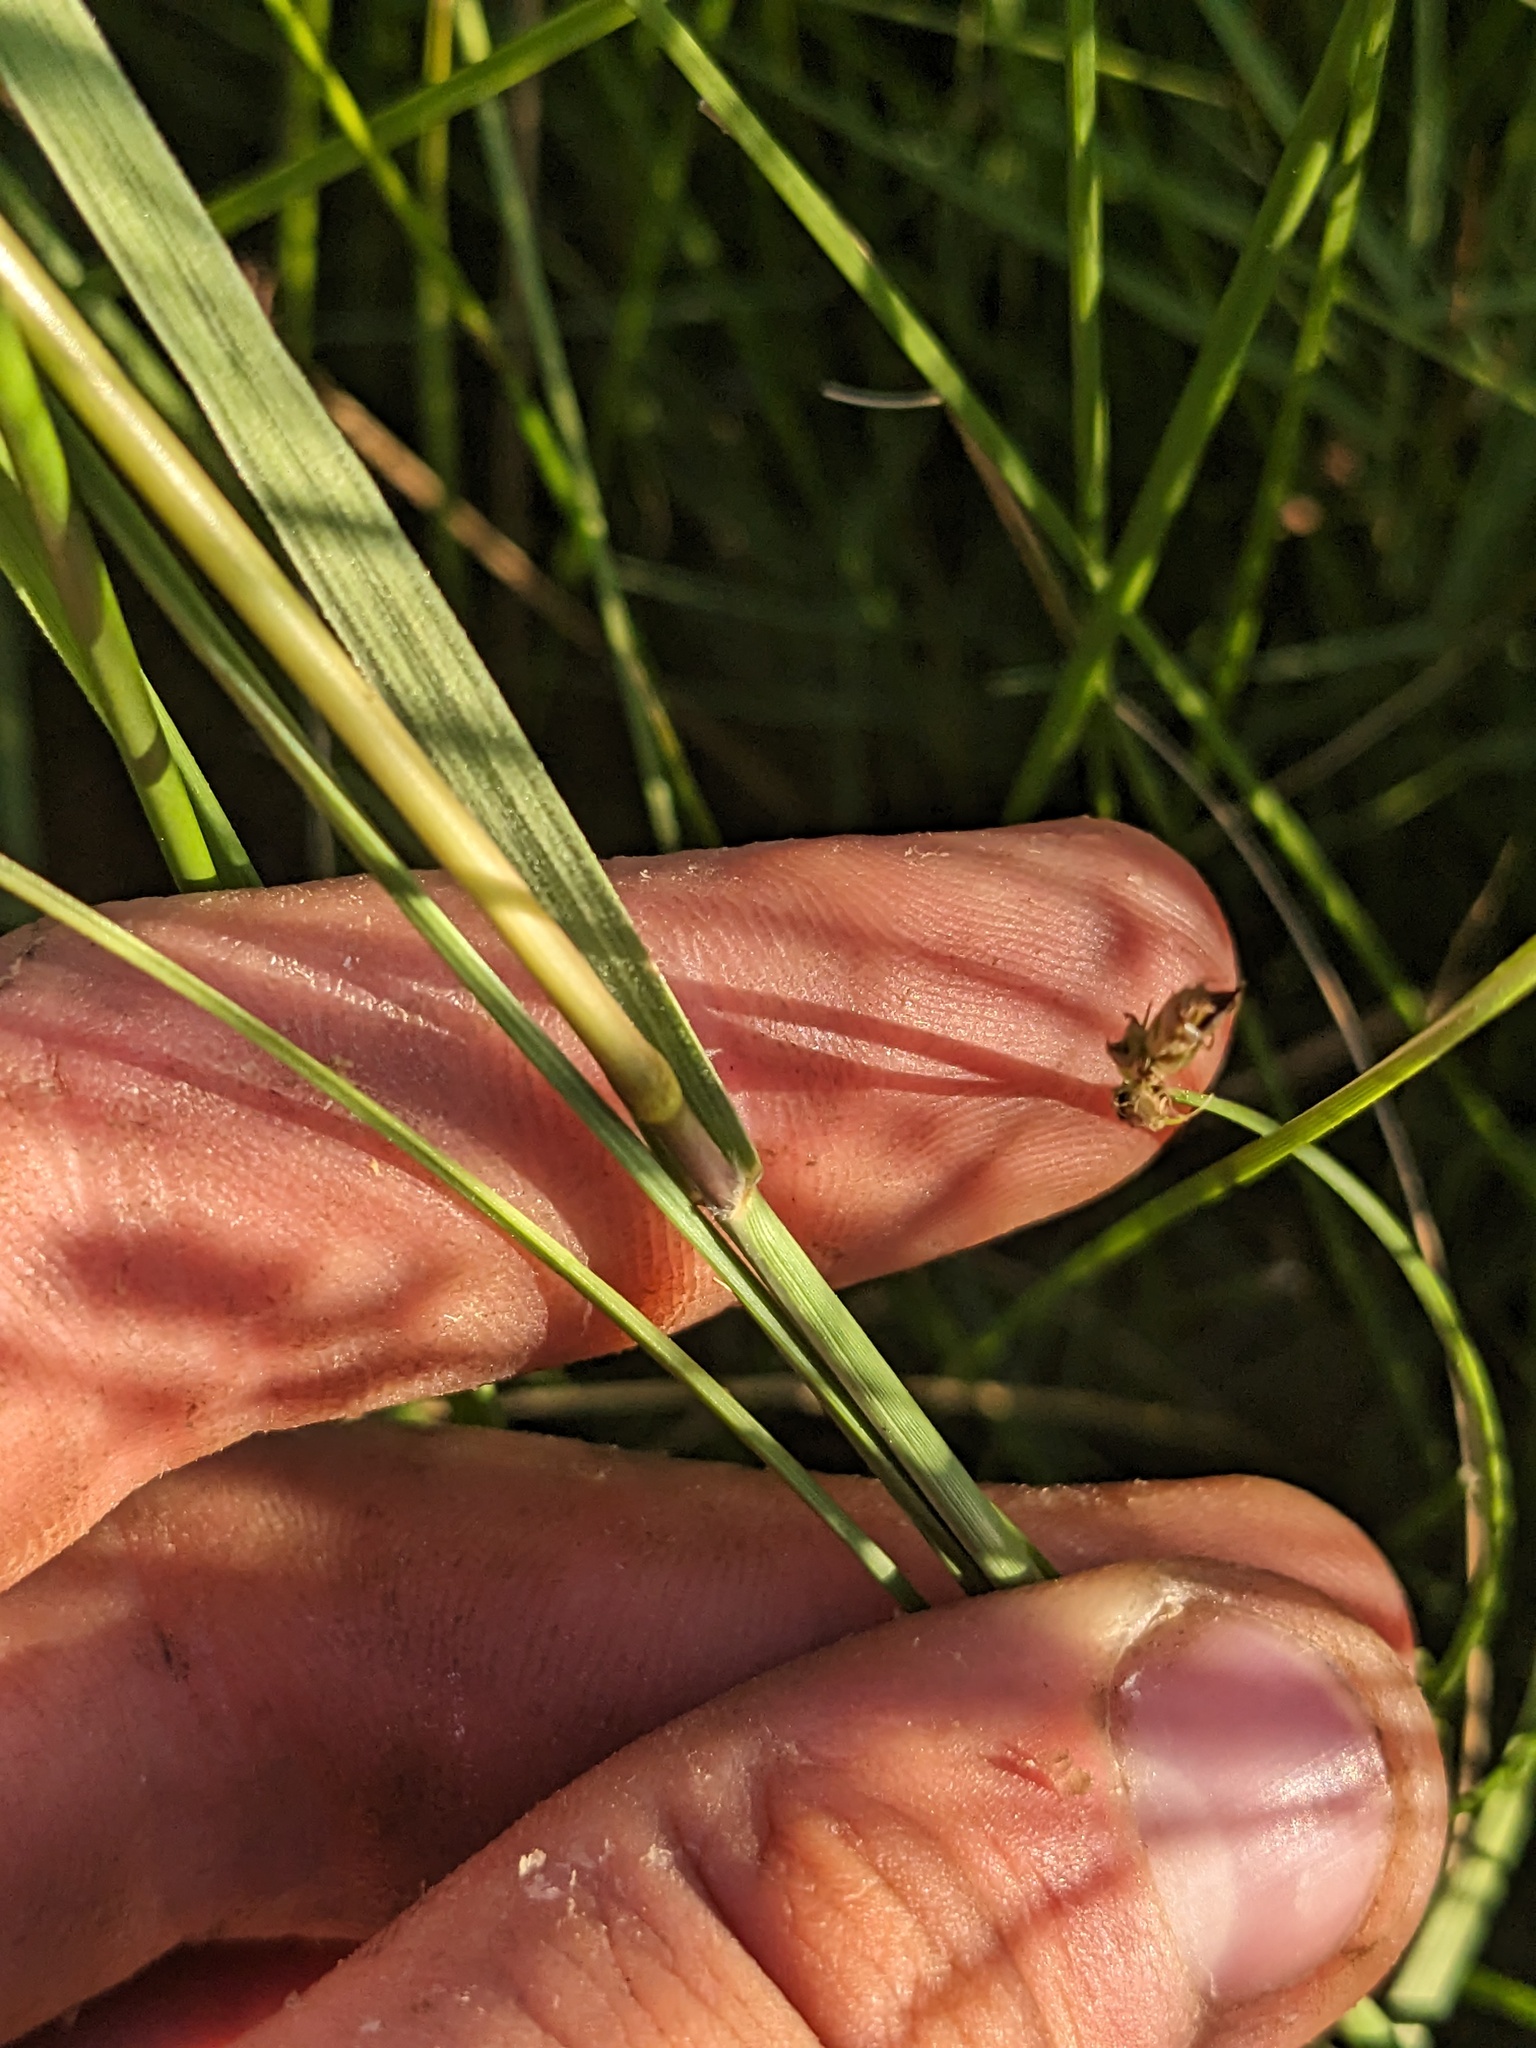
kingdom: Plantae
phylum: Tracheophyta
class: Liliopsida
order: Poales
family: Poaceae
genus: Sporobolus
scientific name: Sporobolus hookerianus
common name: Alkali cordgrass
